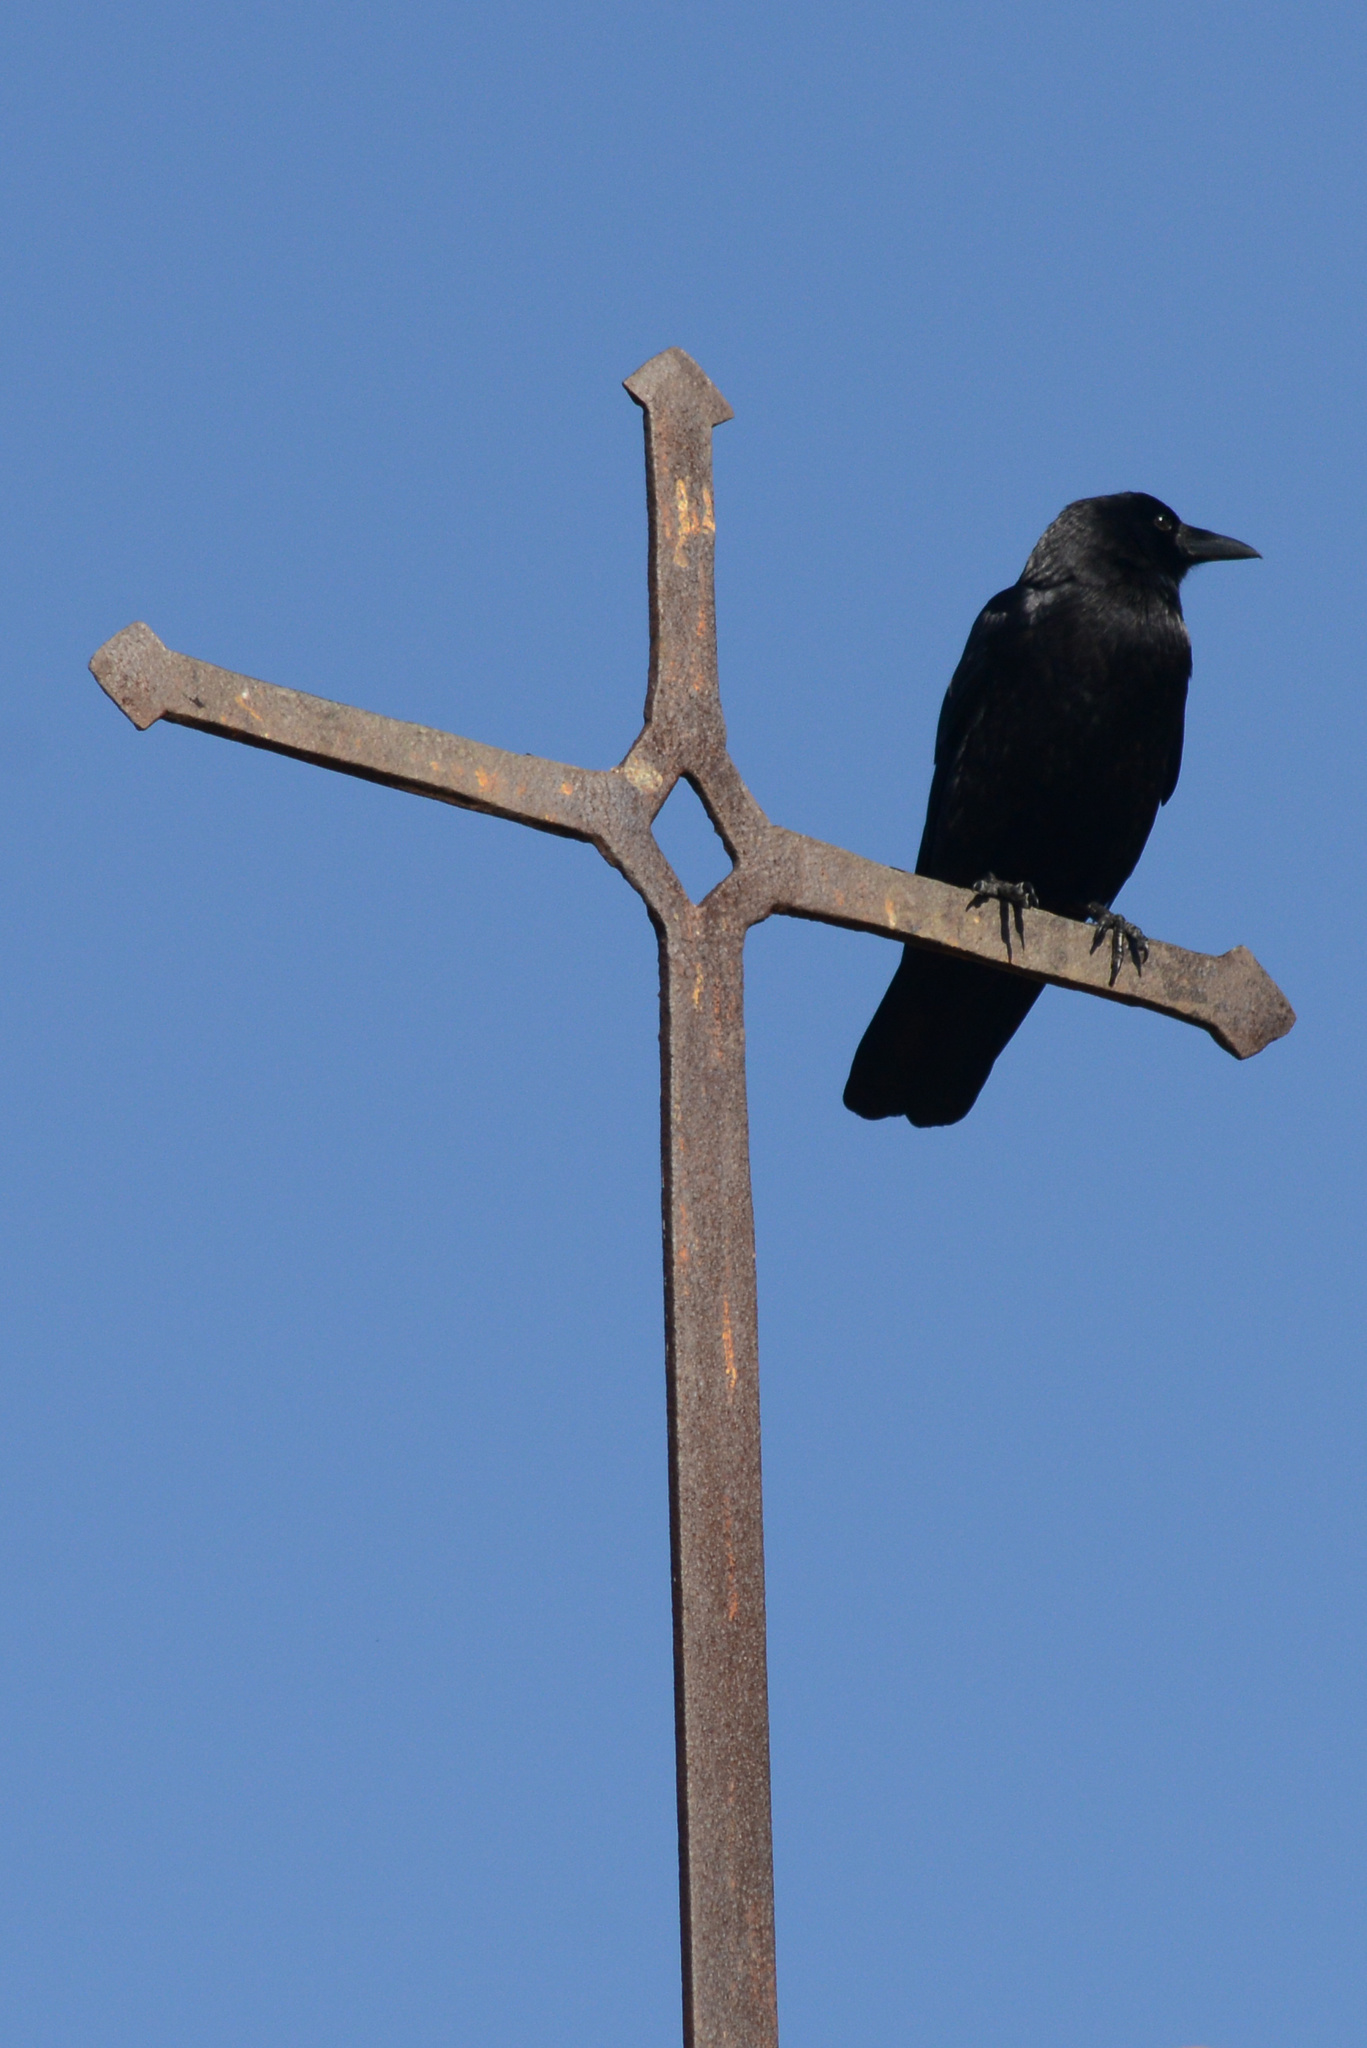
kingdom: Animalia
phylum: Chordata
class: Aves
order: Passeriformes
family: Corvidae
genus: Corvus
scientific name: Corvus brachyrhynchos
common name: American crow
